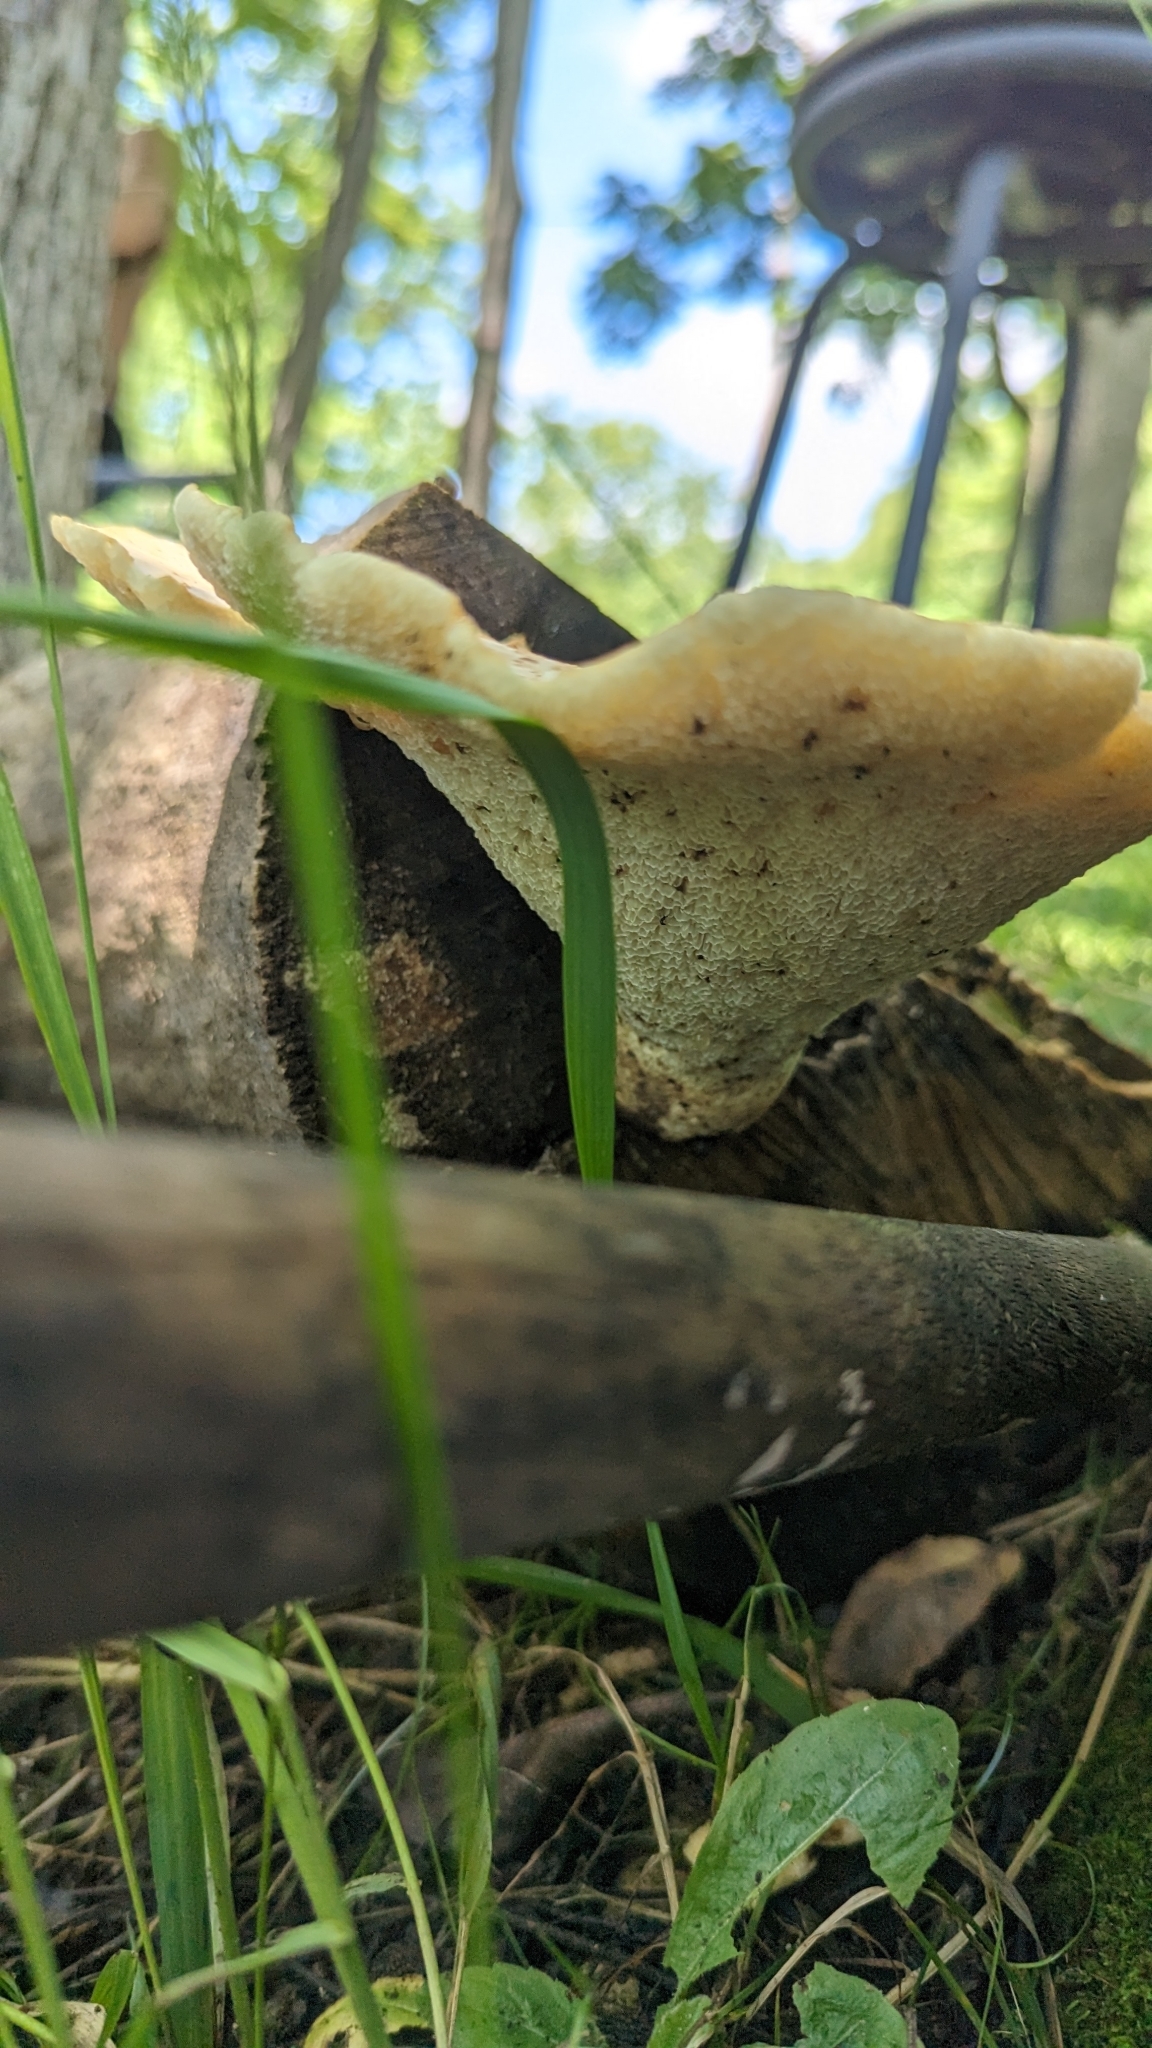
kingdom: Fungi
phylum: Basidiomycota
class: Agaricomycetes
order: Polyporales
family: Polyporaceae
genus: Cerioporus
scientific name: Cerioporus squamosus
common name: Dryad's saddle
